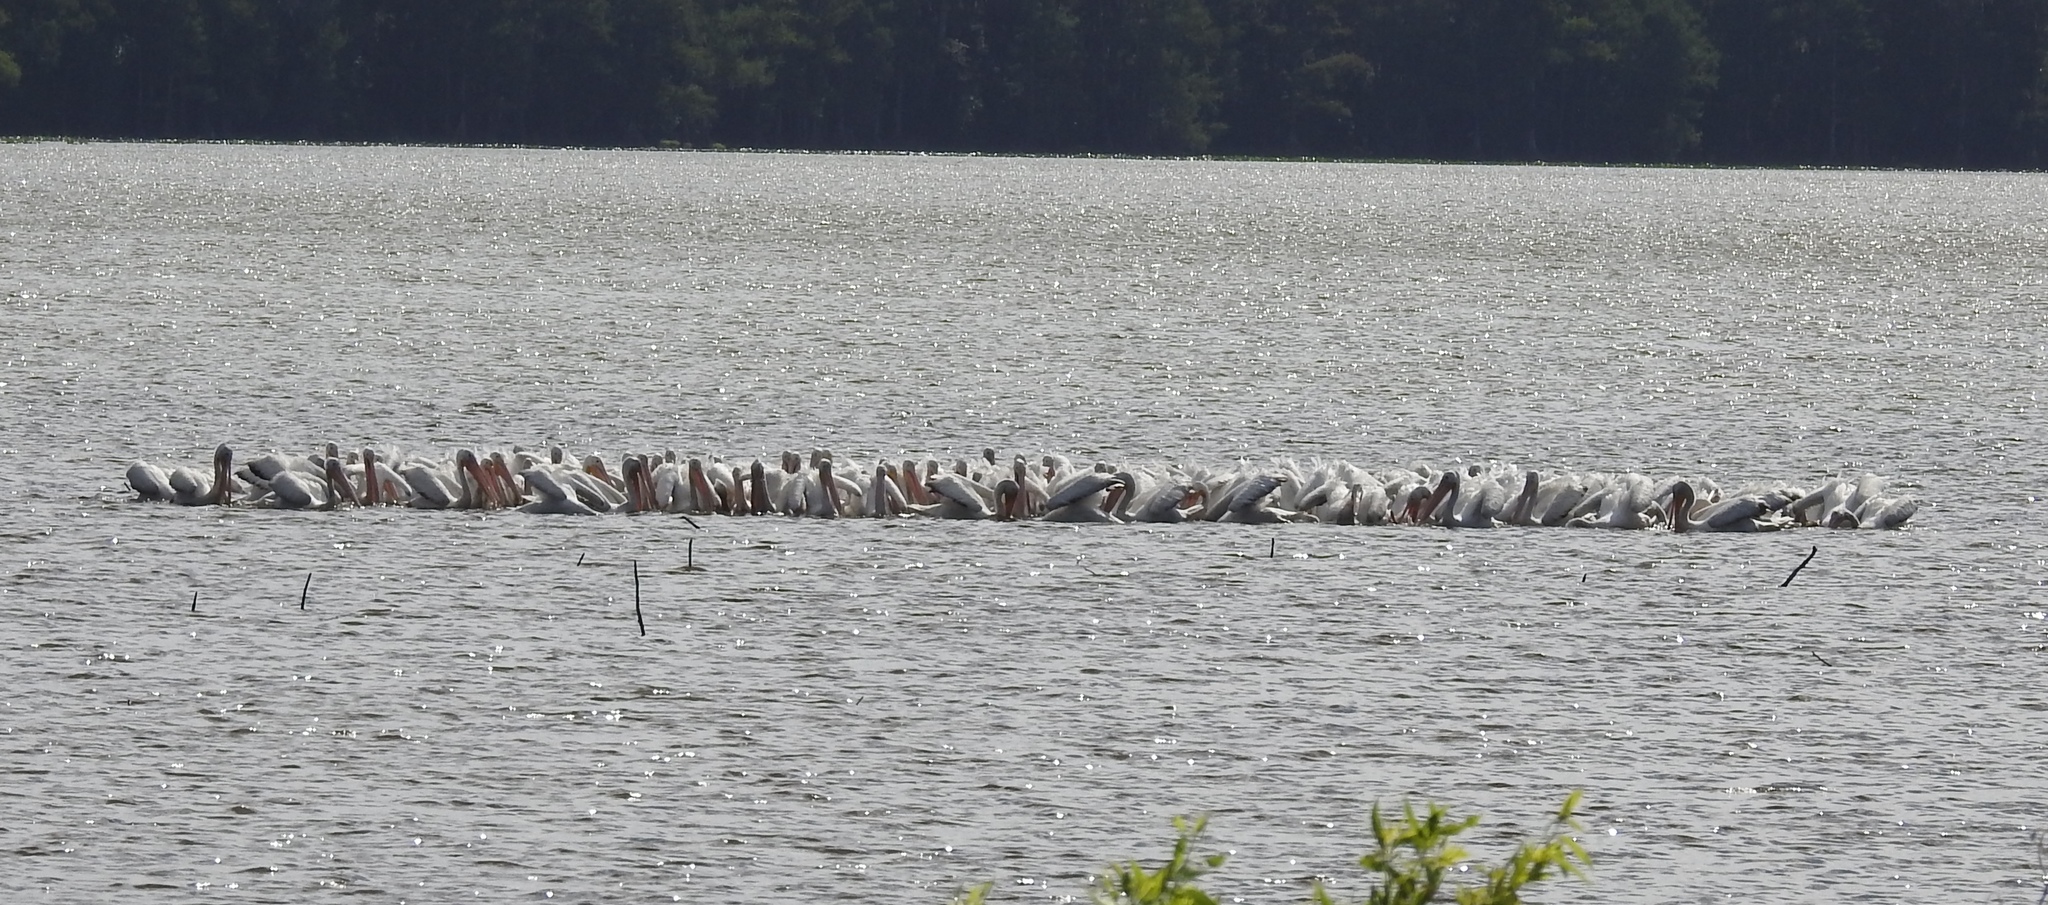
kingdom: Animalia
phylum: Chordata
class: Aves
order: Pelecaniformes
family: Pelecanidae
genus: Pelecanus
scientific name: Pelecanus erythrorhynchos
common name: American white pelican
